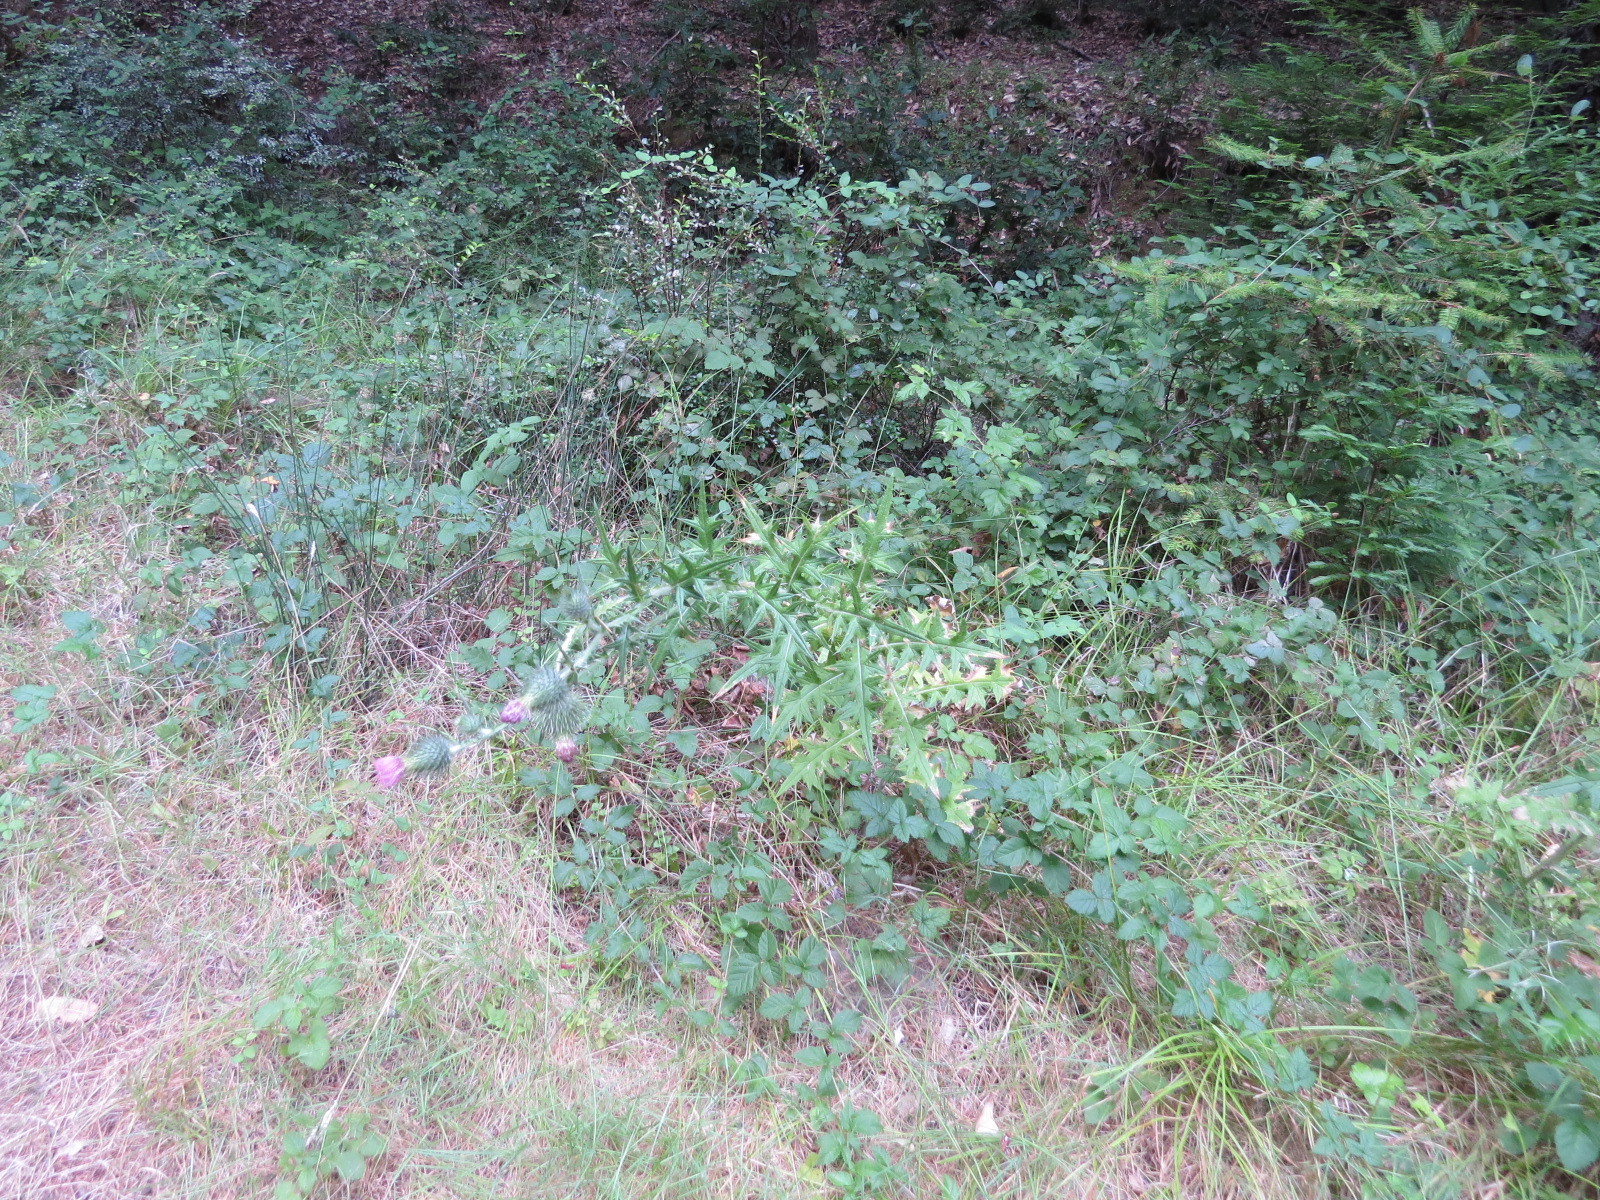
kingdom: Plantae
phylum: Tracheophyta
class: Magnoliopsida
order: Asterales
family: Asteraceae
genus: Cirsium
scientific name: Cirsium vulgare
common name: Bull thistle
